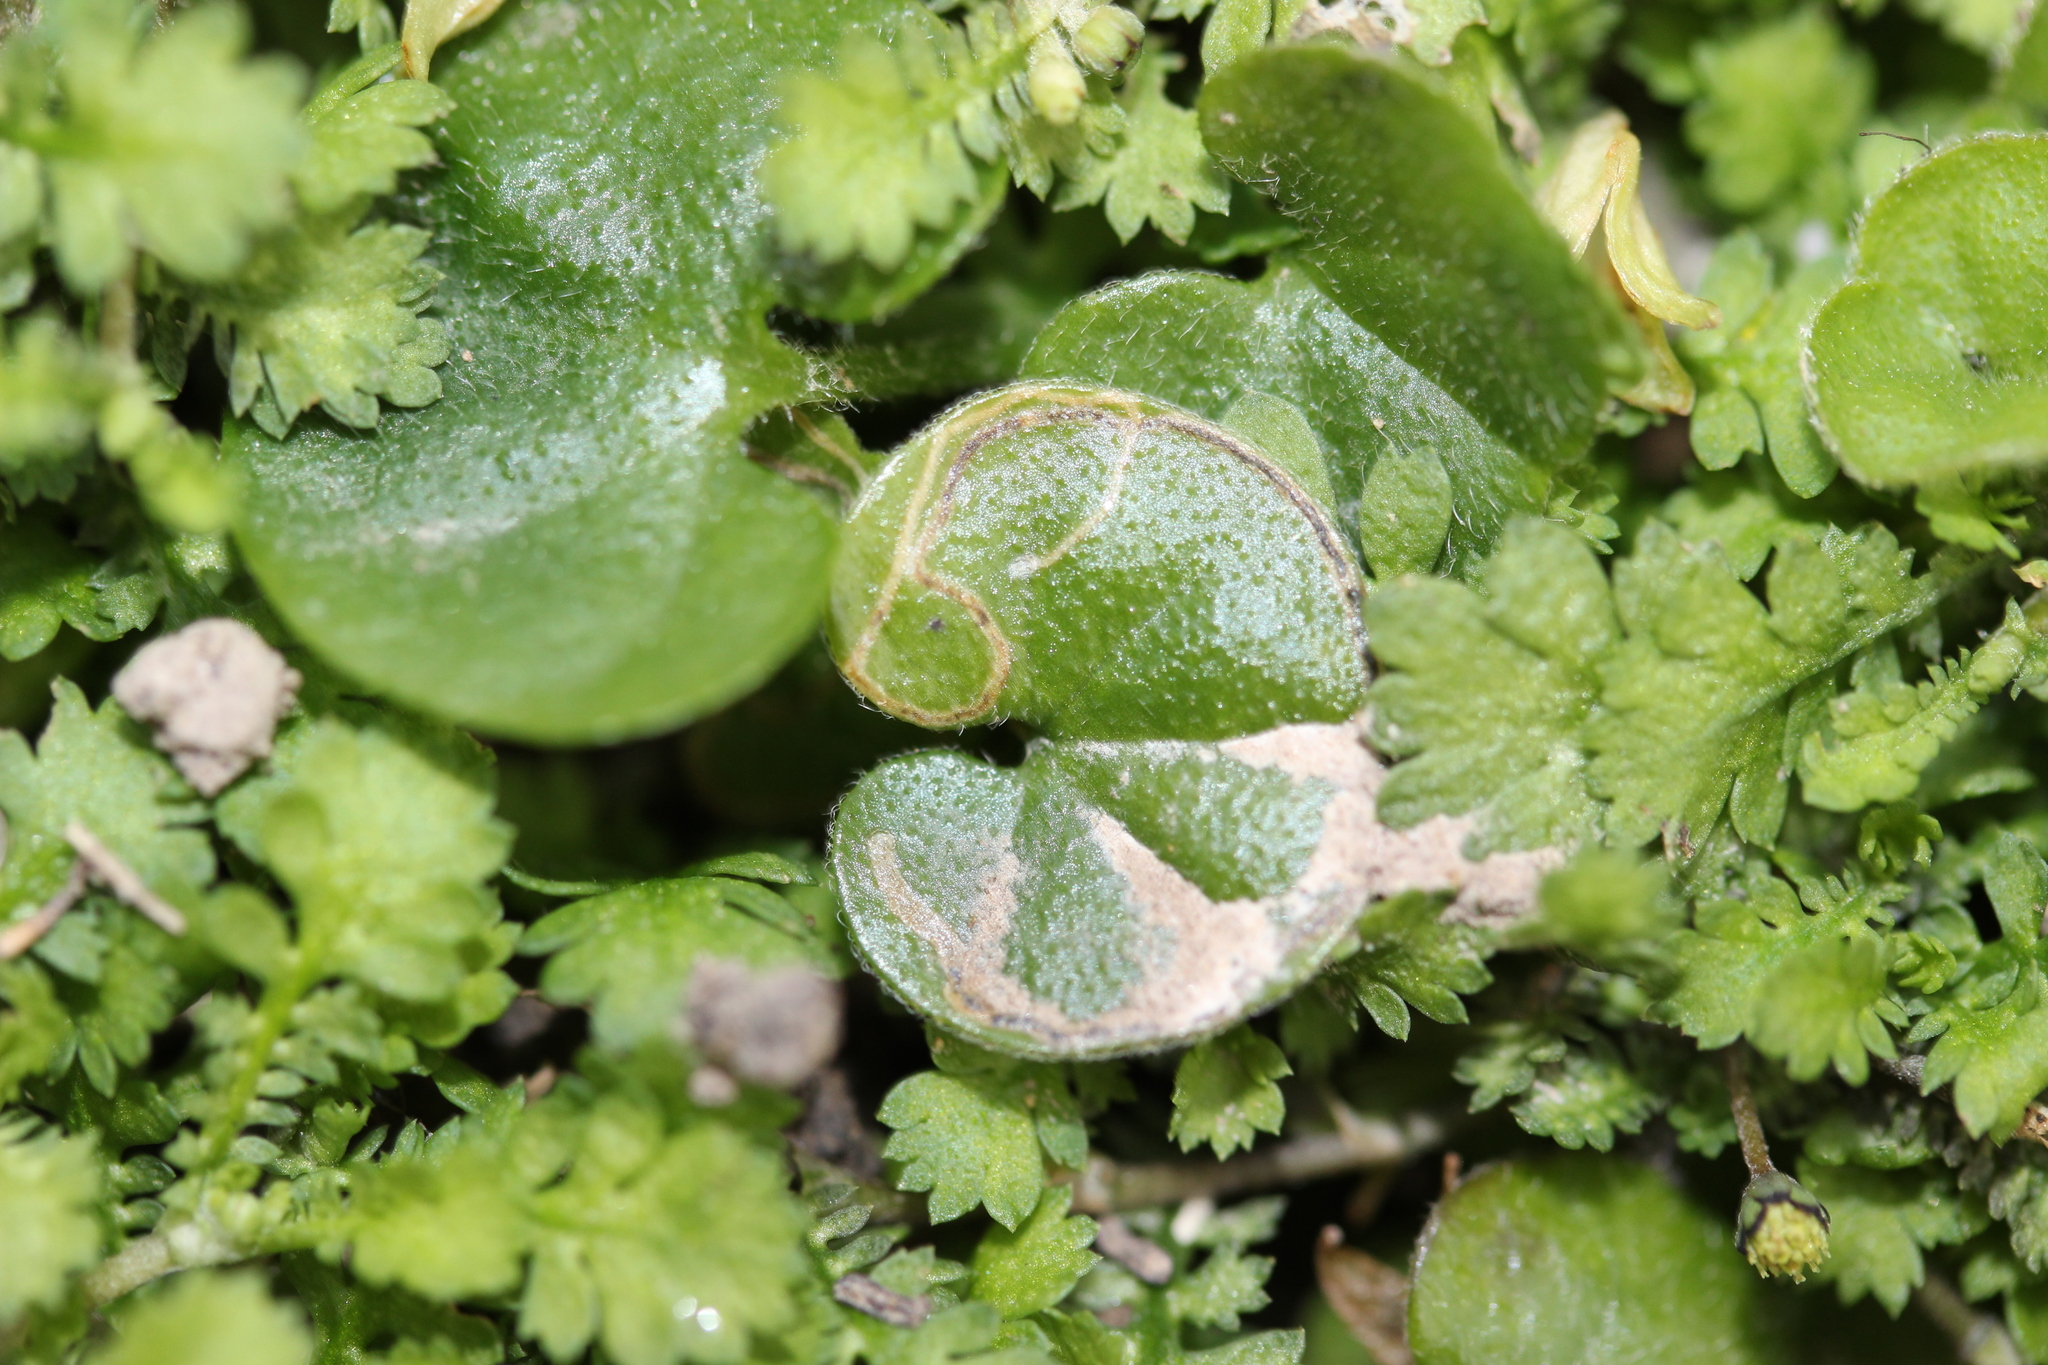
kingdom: Plantae
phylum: Tracheophyta
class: Magnoliopsida
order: Solanales
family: Convolvulaceae
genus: Dichondra
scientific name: Dichondra repens
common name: Kidneyweed
